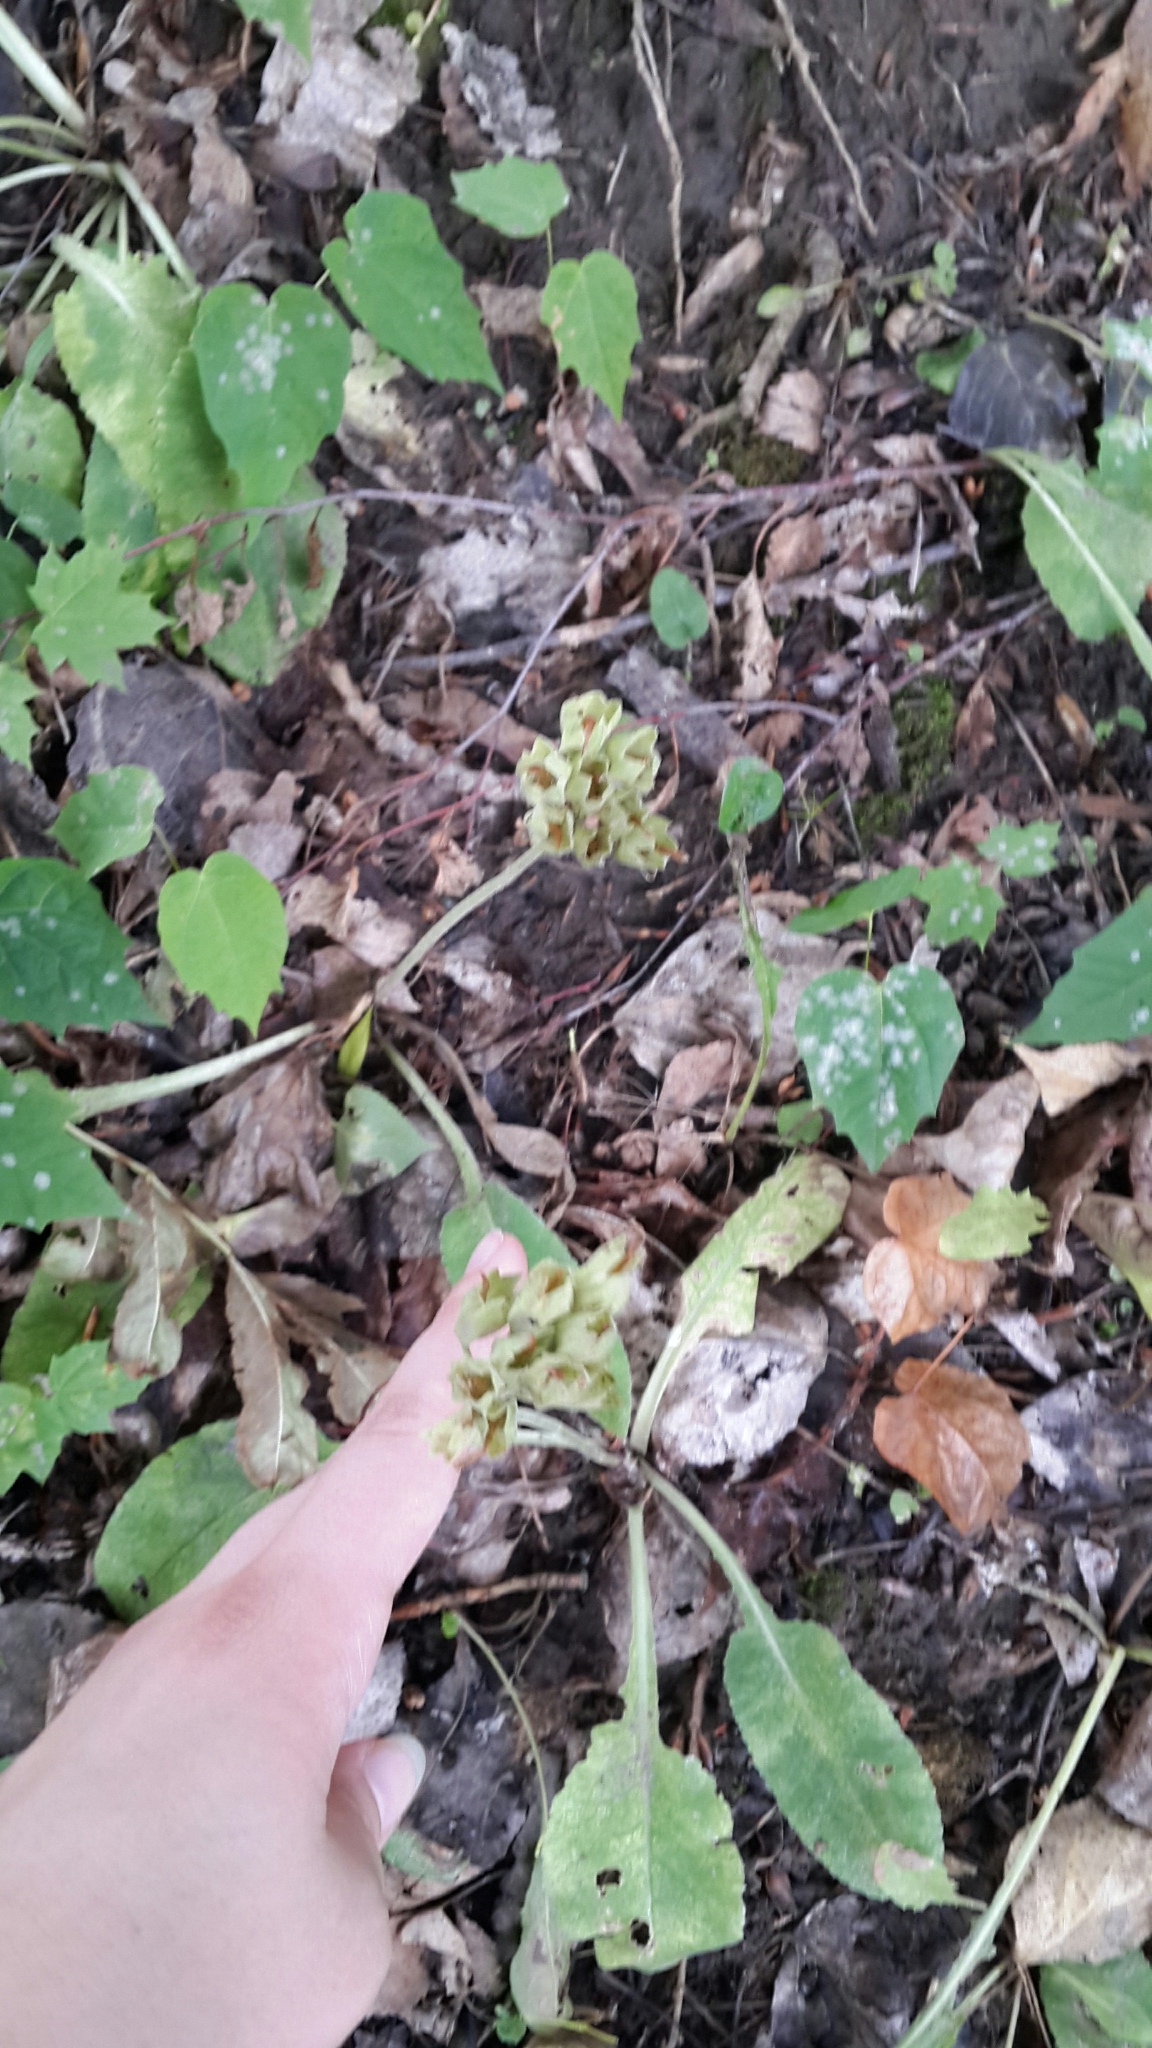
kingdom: Plantae
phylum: Tracheophyta
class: Magnoliopsida
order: Ericales
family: Primulaceae
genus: Primula
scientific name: Primula veris
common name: Cowslip
